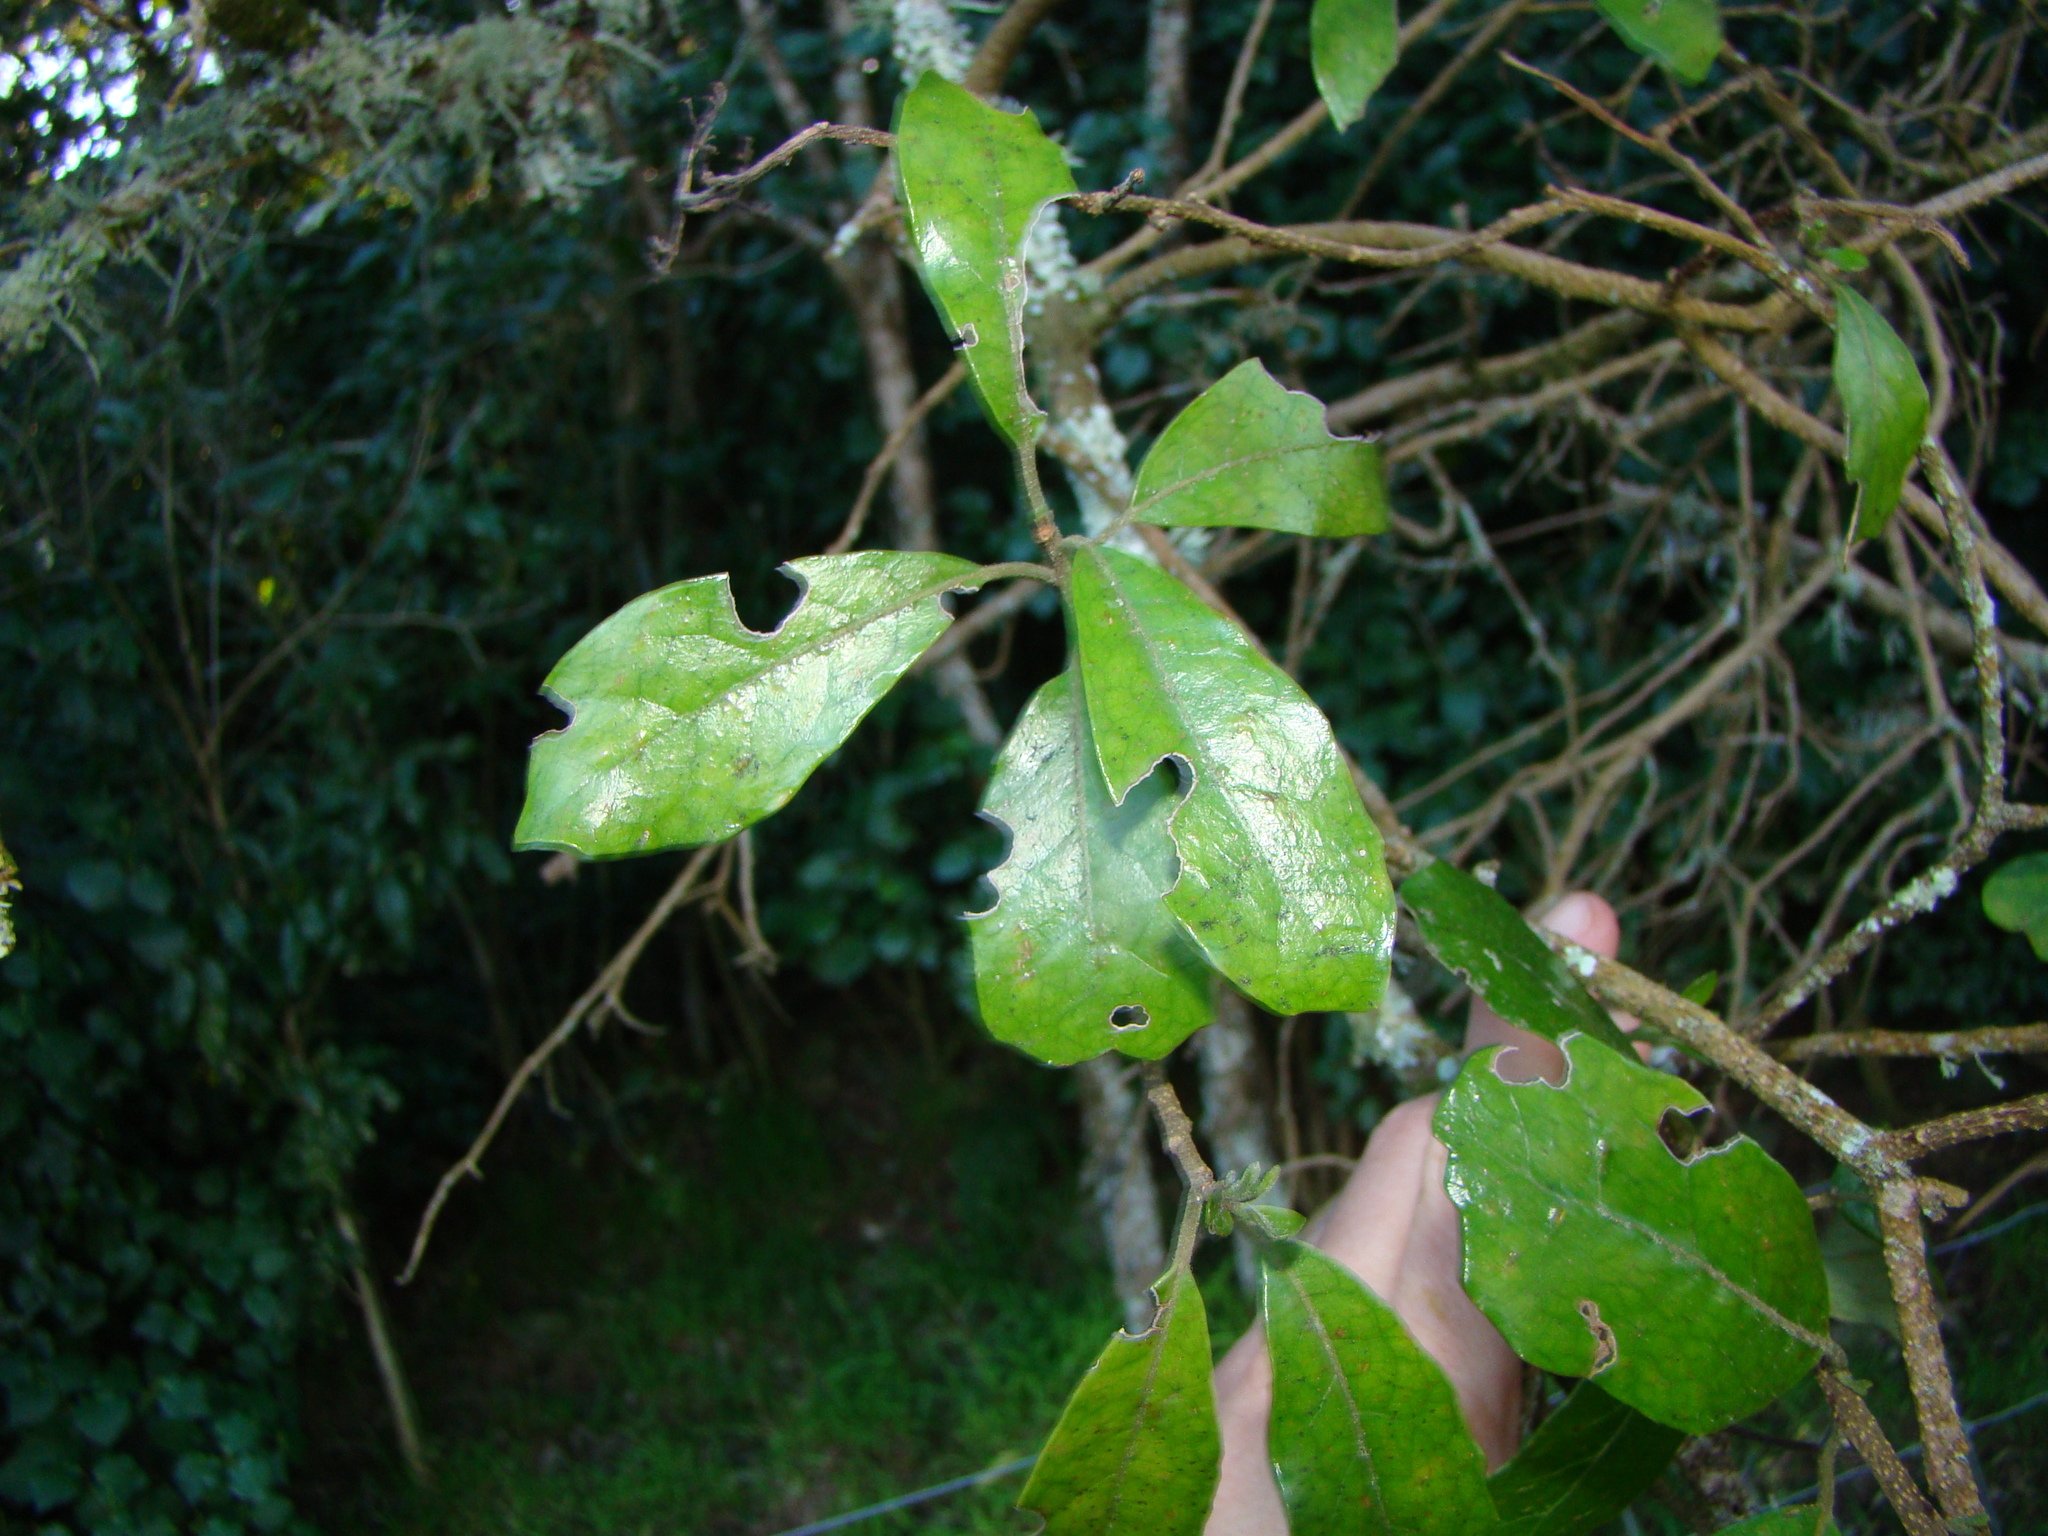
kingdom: Plantae
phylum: Tracheophyta
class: Magnoliopsida
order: Apiales
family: Pennantiaceae
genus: Pennantia
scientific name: Pennantia corymbosa
